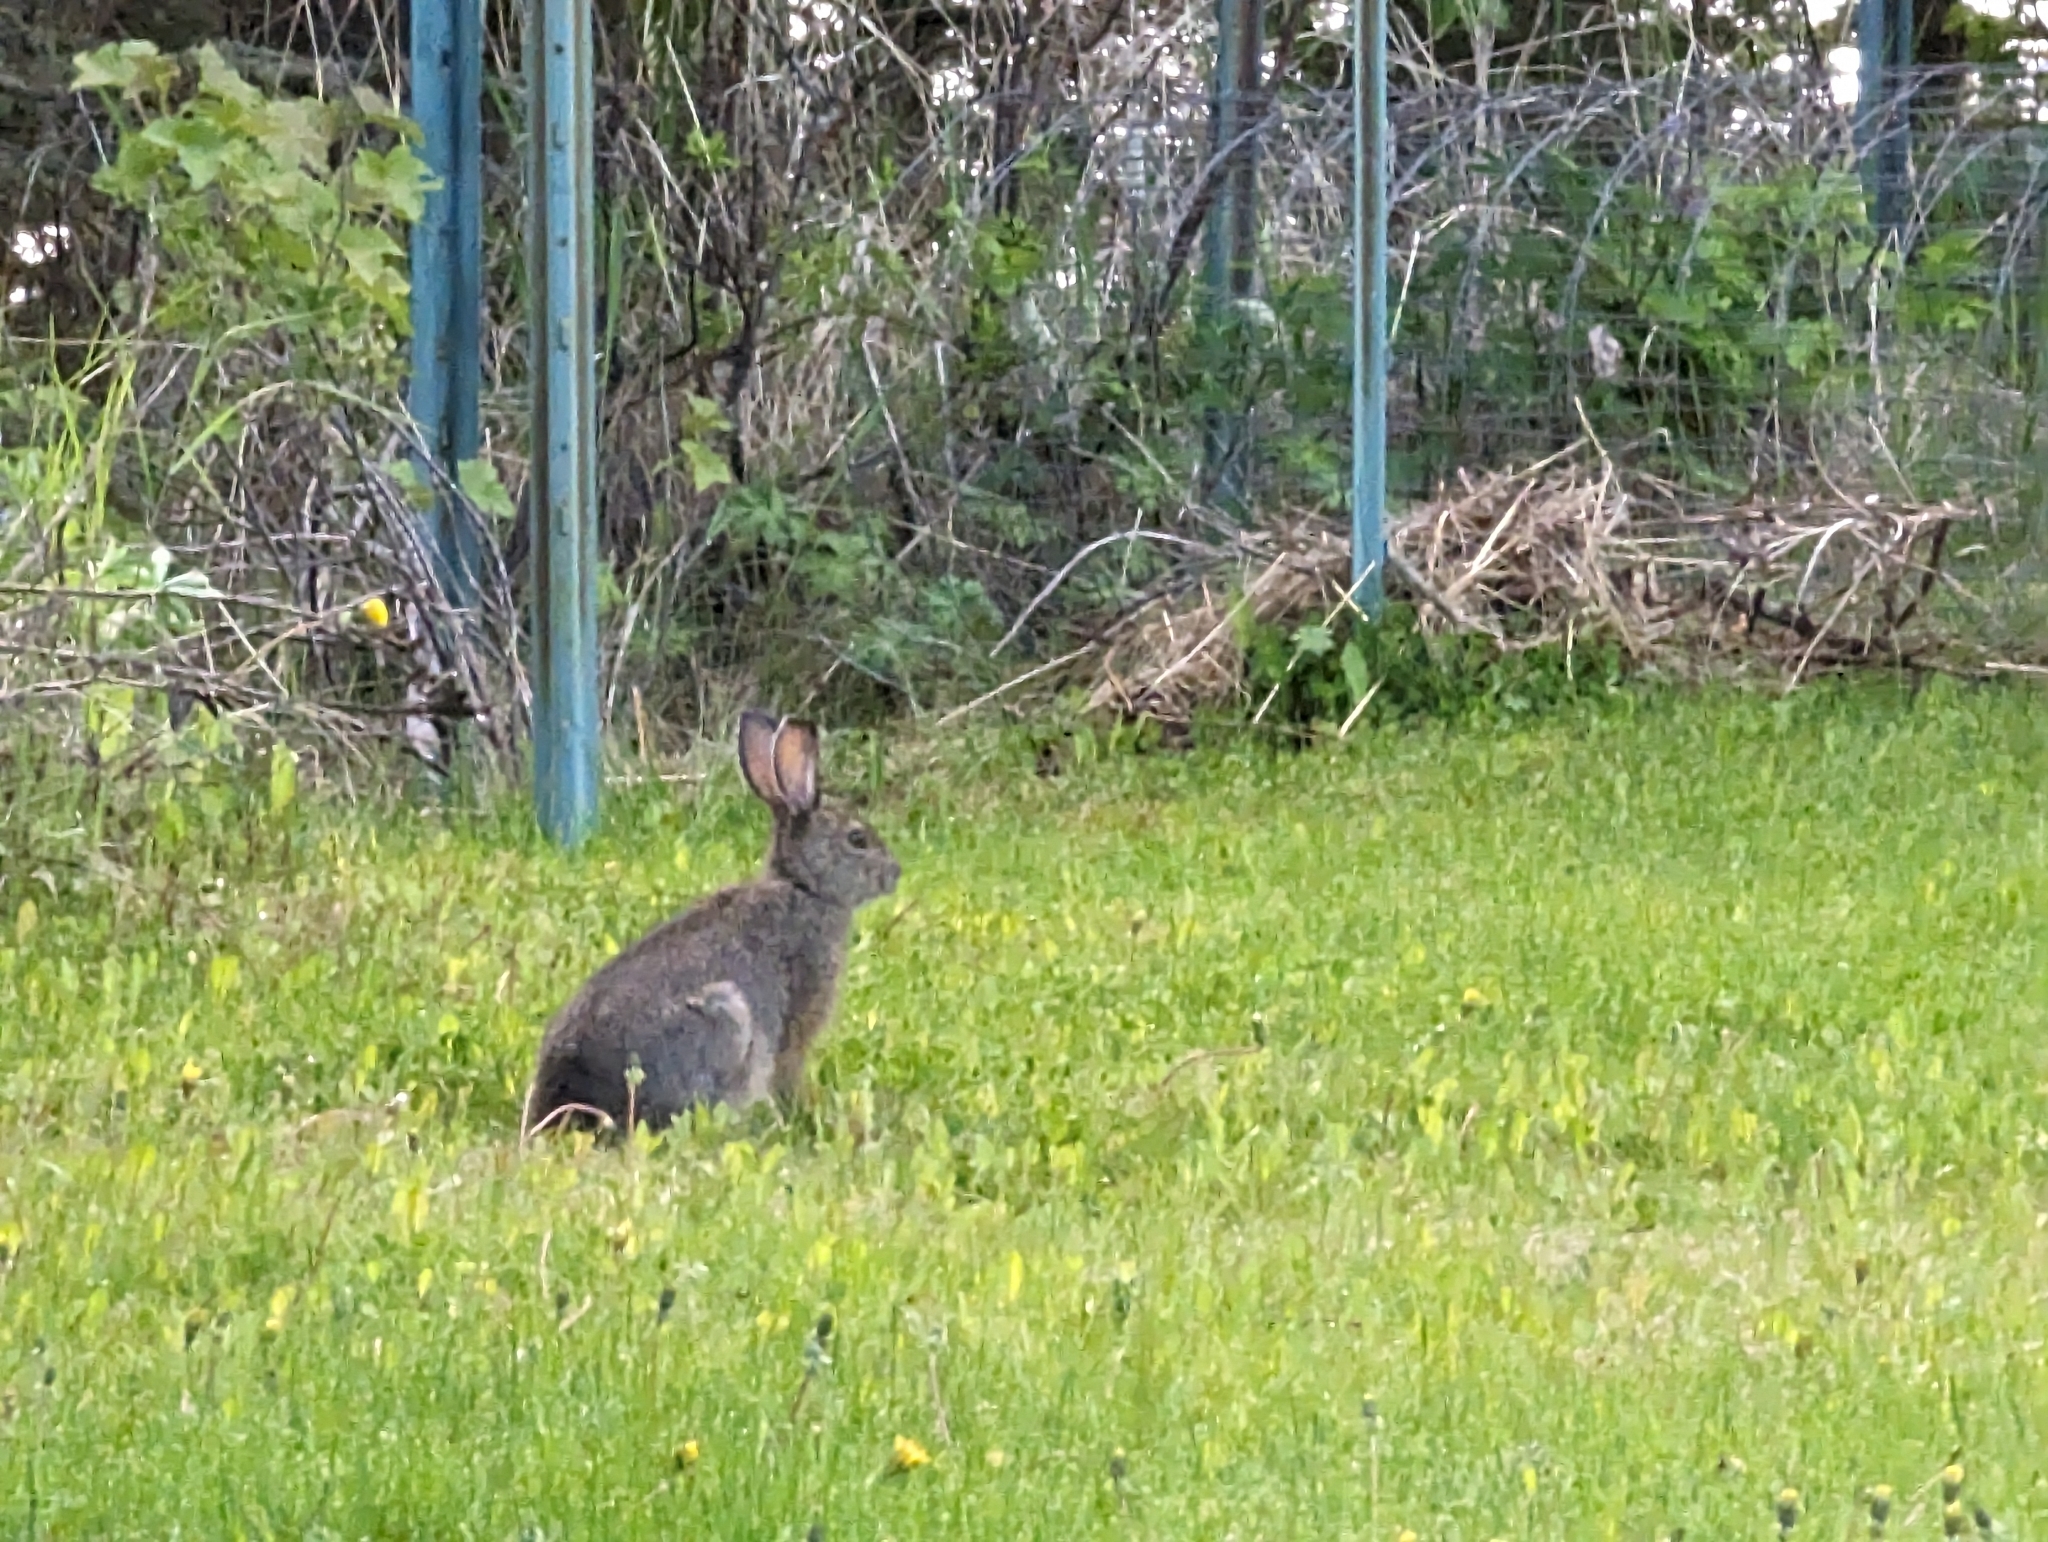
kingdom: Animalia
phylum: Chordata
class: Mammalia
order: Lagomorpha
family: Leporidae
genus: Lepus
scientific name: Lepus americanus
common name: Snowshoe hare
